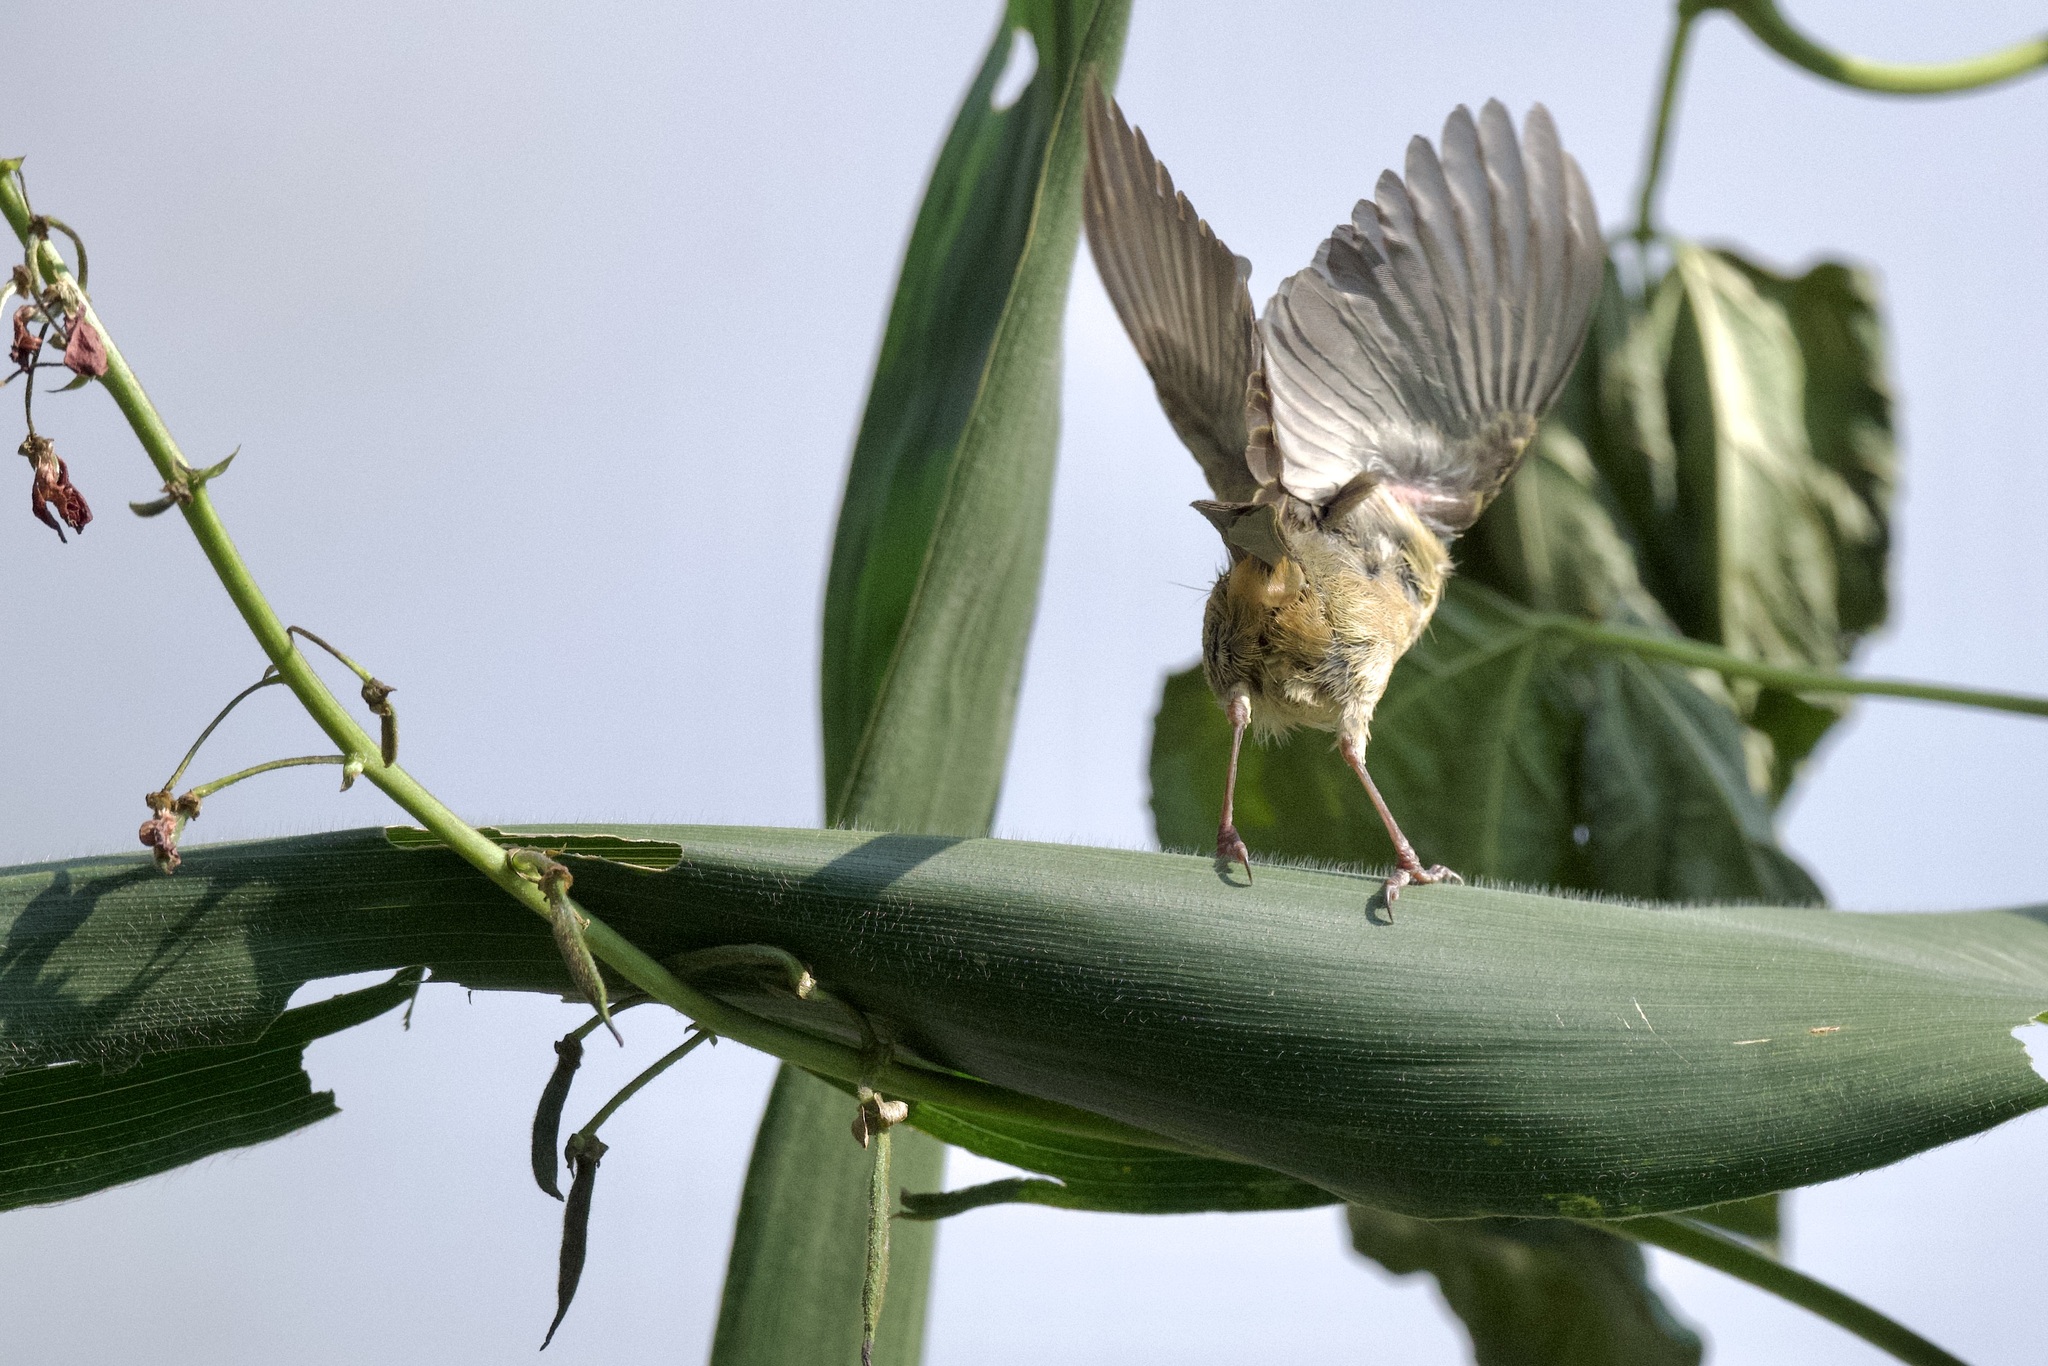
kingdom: Animalia
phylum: Chordata
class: Aves
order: Passeriformes
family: Thraupidae
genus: Diglossa
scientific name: Diglossa baritula
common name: Cinnamon-bellied flowerpiercer
